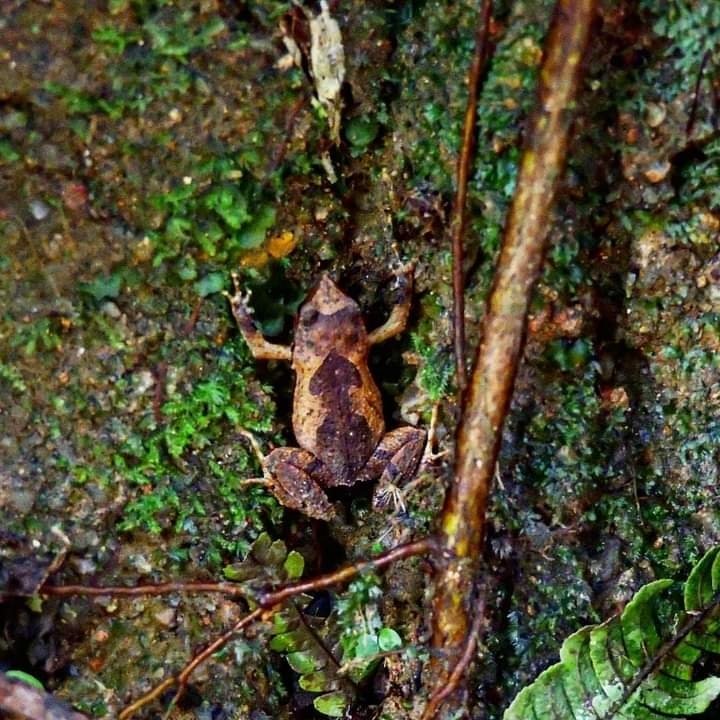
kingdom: Animalia
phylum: Chordata
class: Amphibia
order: Anura
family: Leptodactylidae
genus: Physalaemus
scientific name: Physalaemus nanus
